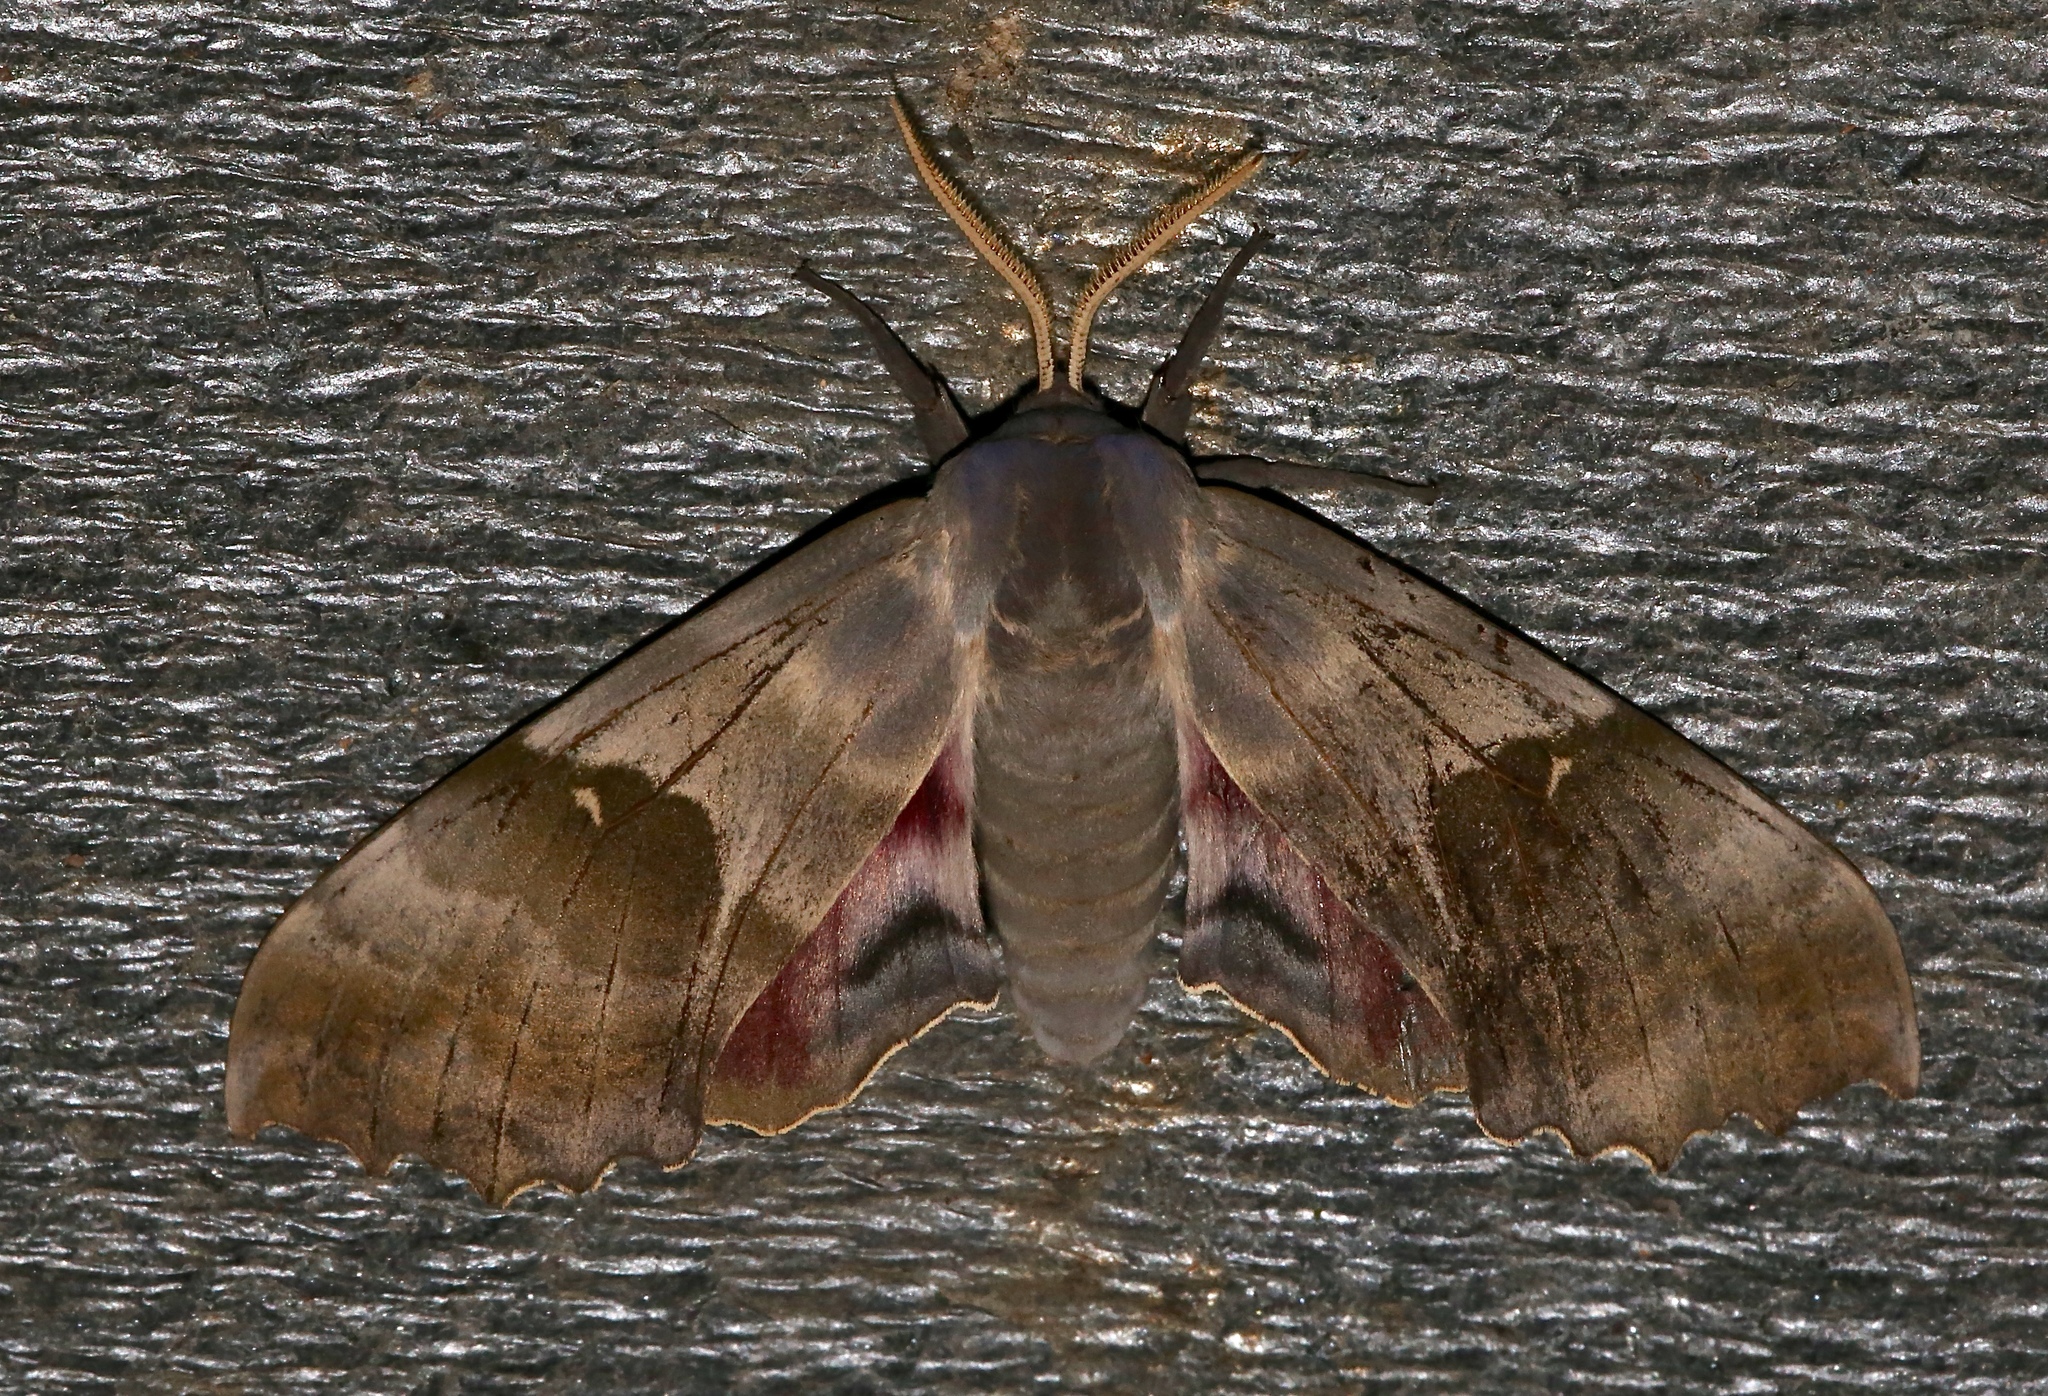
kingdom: Animalia
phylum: Arthropoda
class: Insecta
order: Lepidoptera
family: Sphingidae
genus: Pachysphinx
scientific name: Pachysphinx modesta
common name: Big poplar sphinx
